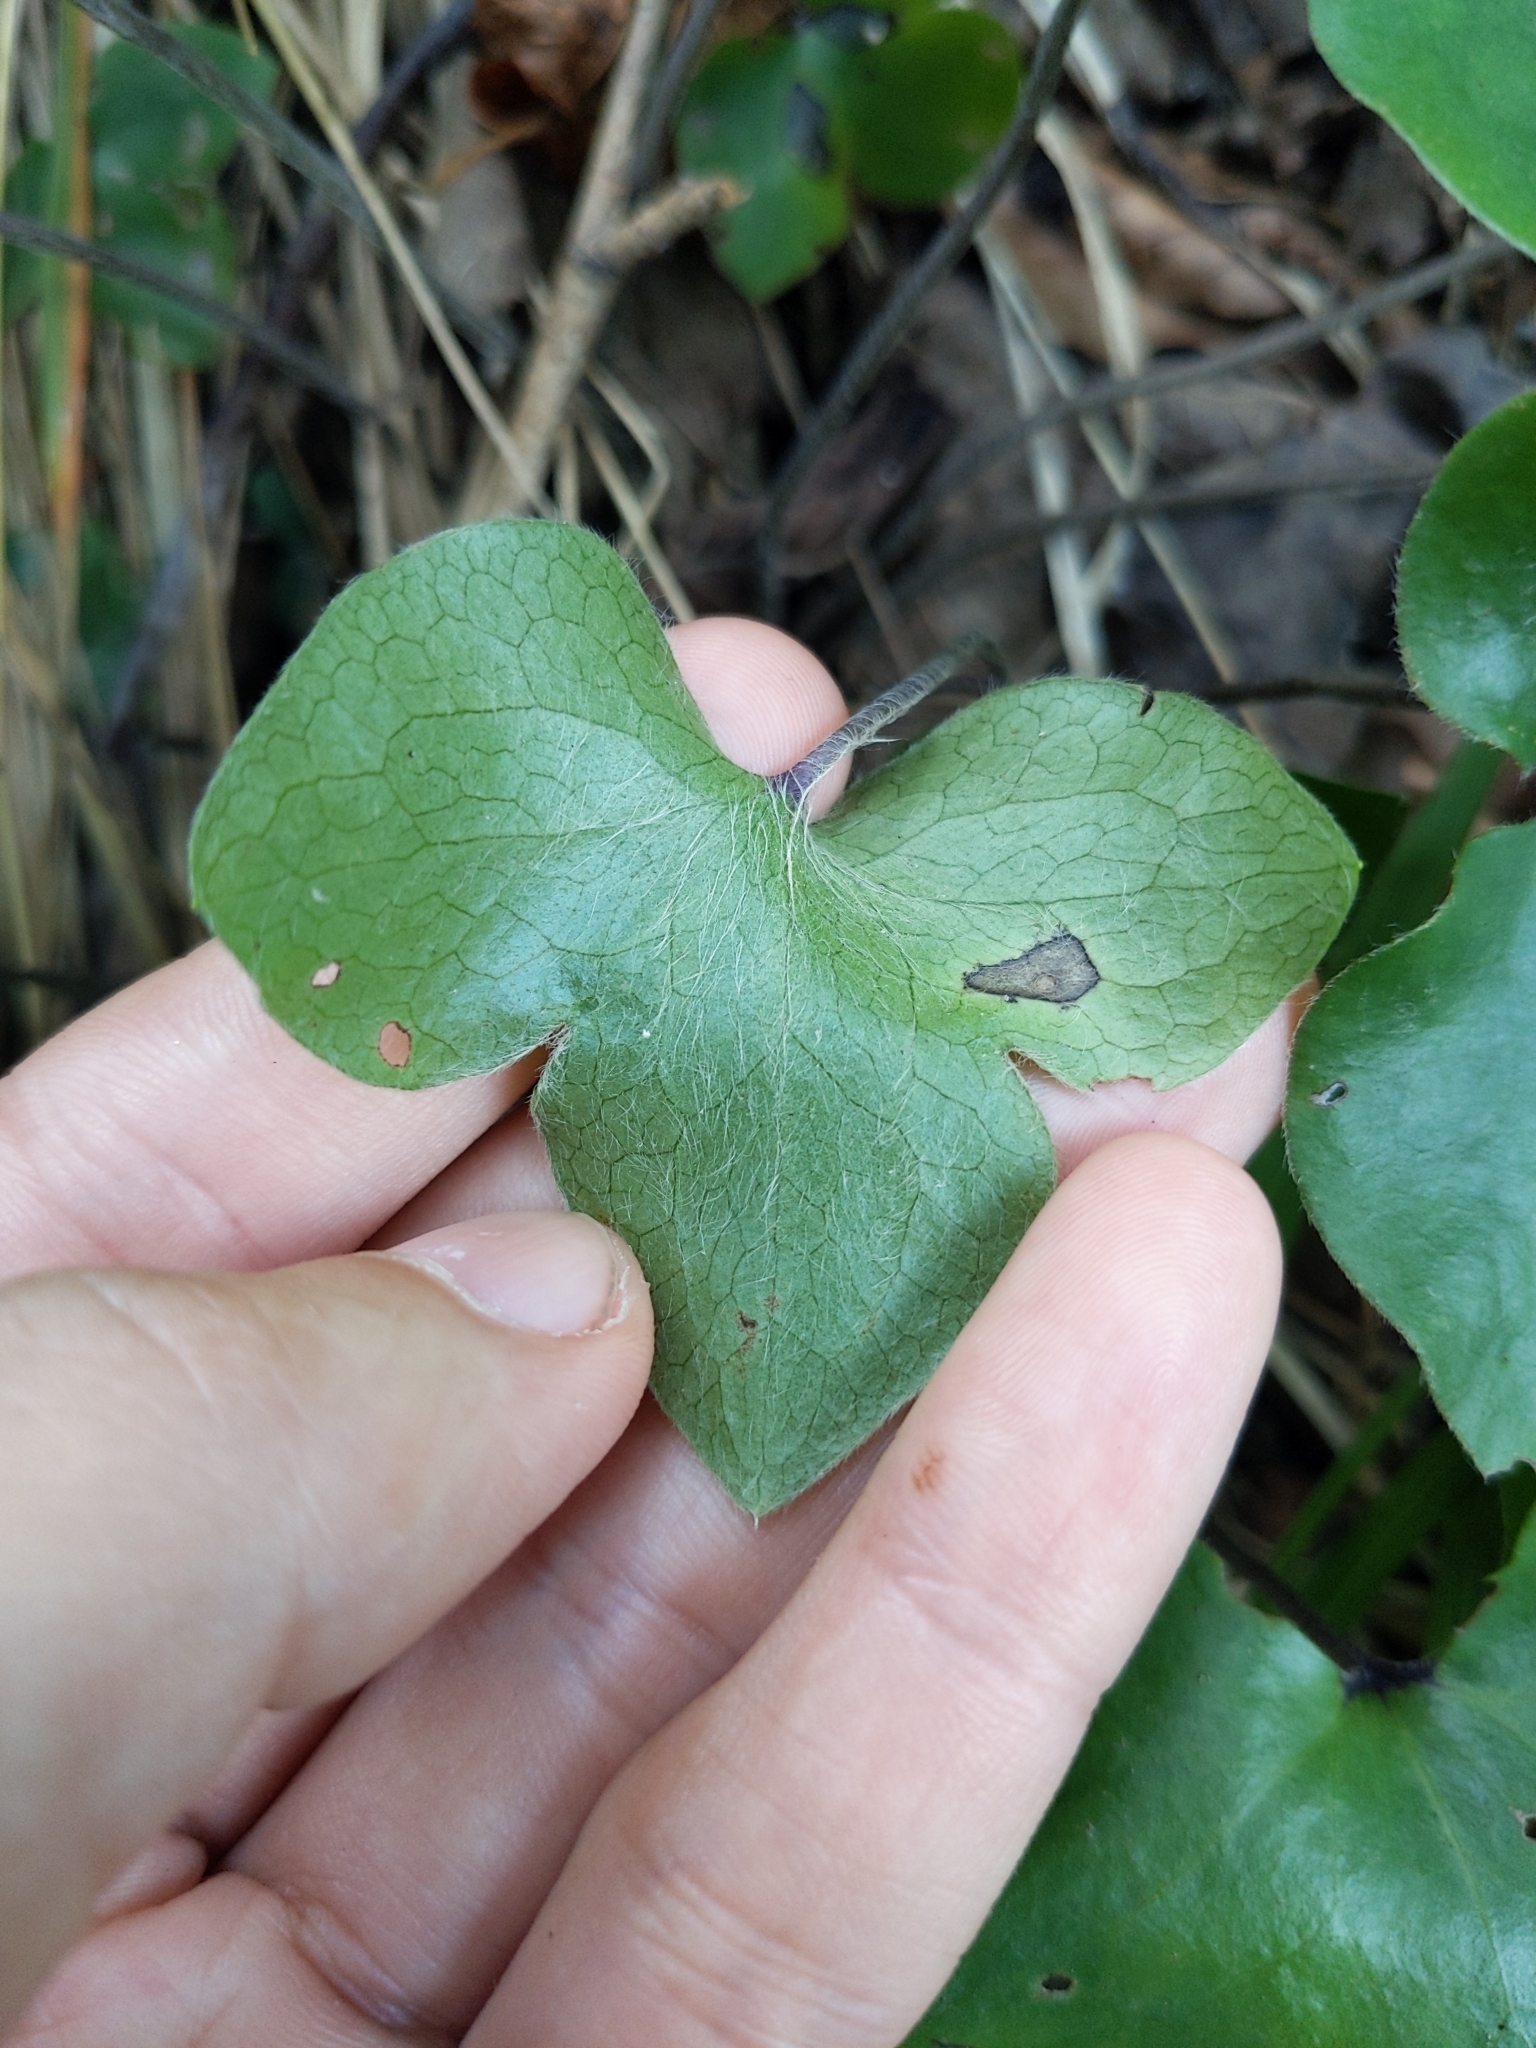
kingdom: Plantae
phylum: Tracheophyta
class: Magnoliopsida
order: Ranunculales
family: Ranunculaceae
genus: Hepatica
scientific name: Hepatica nobilis
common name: Liverleaf
